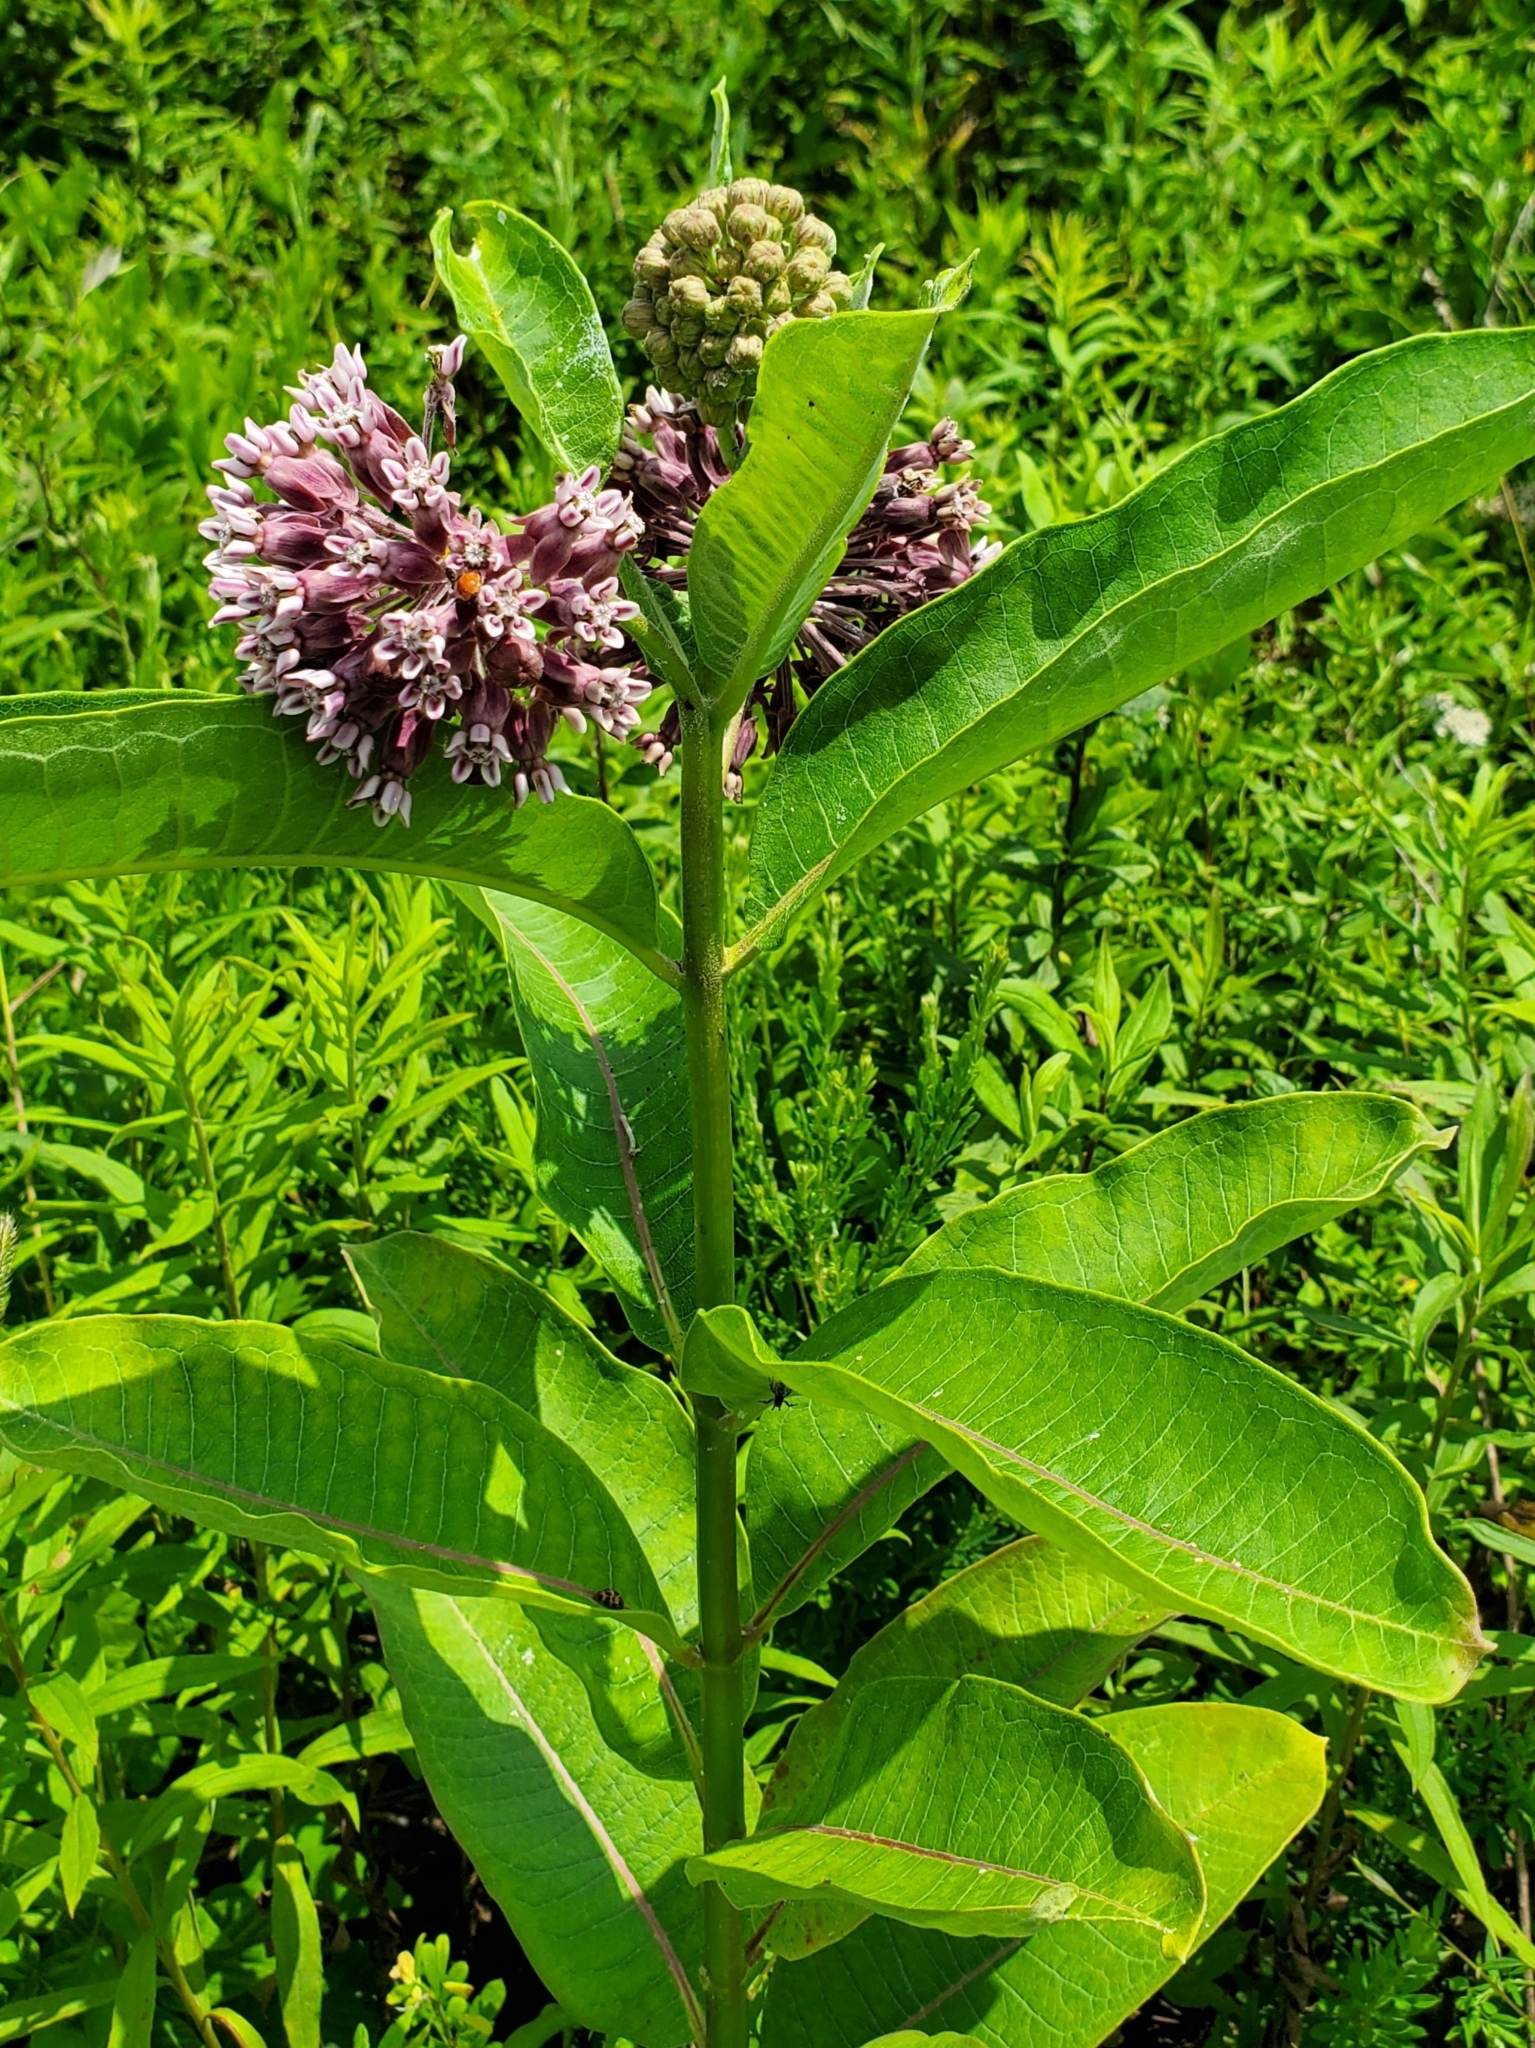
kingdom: Plantae
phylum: Tracheophyta
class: Magnoliopsida
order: Gentianales
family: Apocynaceae
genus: Asclepias
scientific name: Asclepias syriaca
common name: Common milkweed
